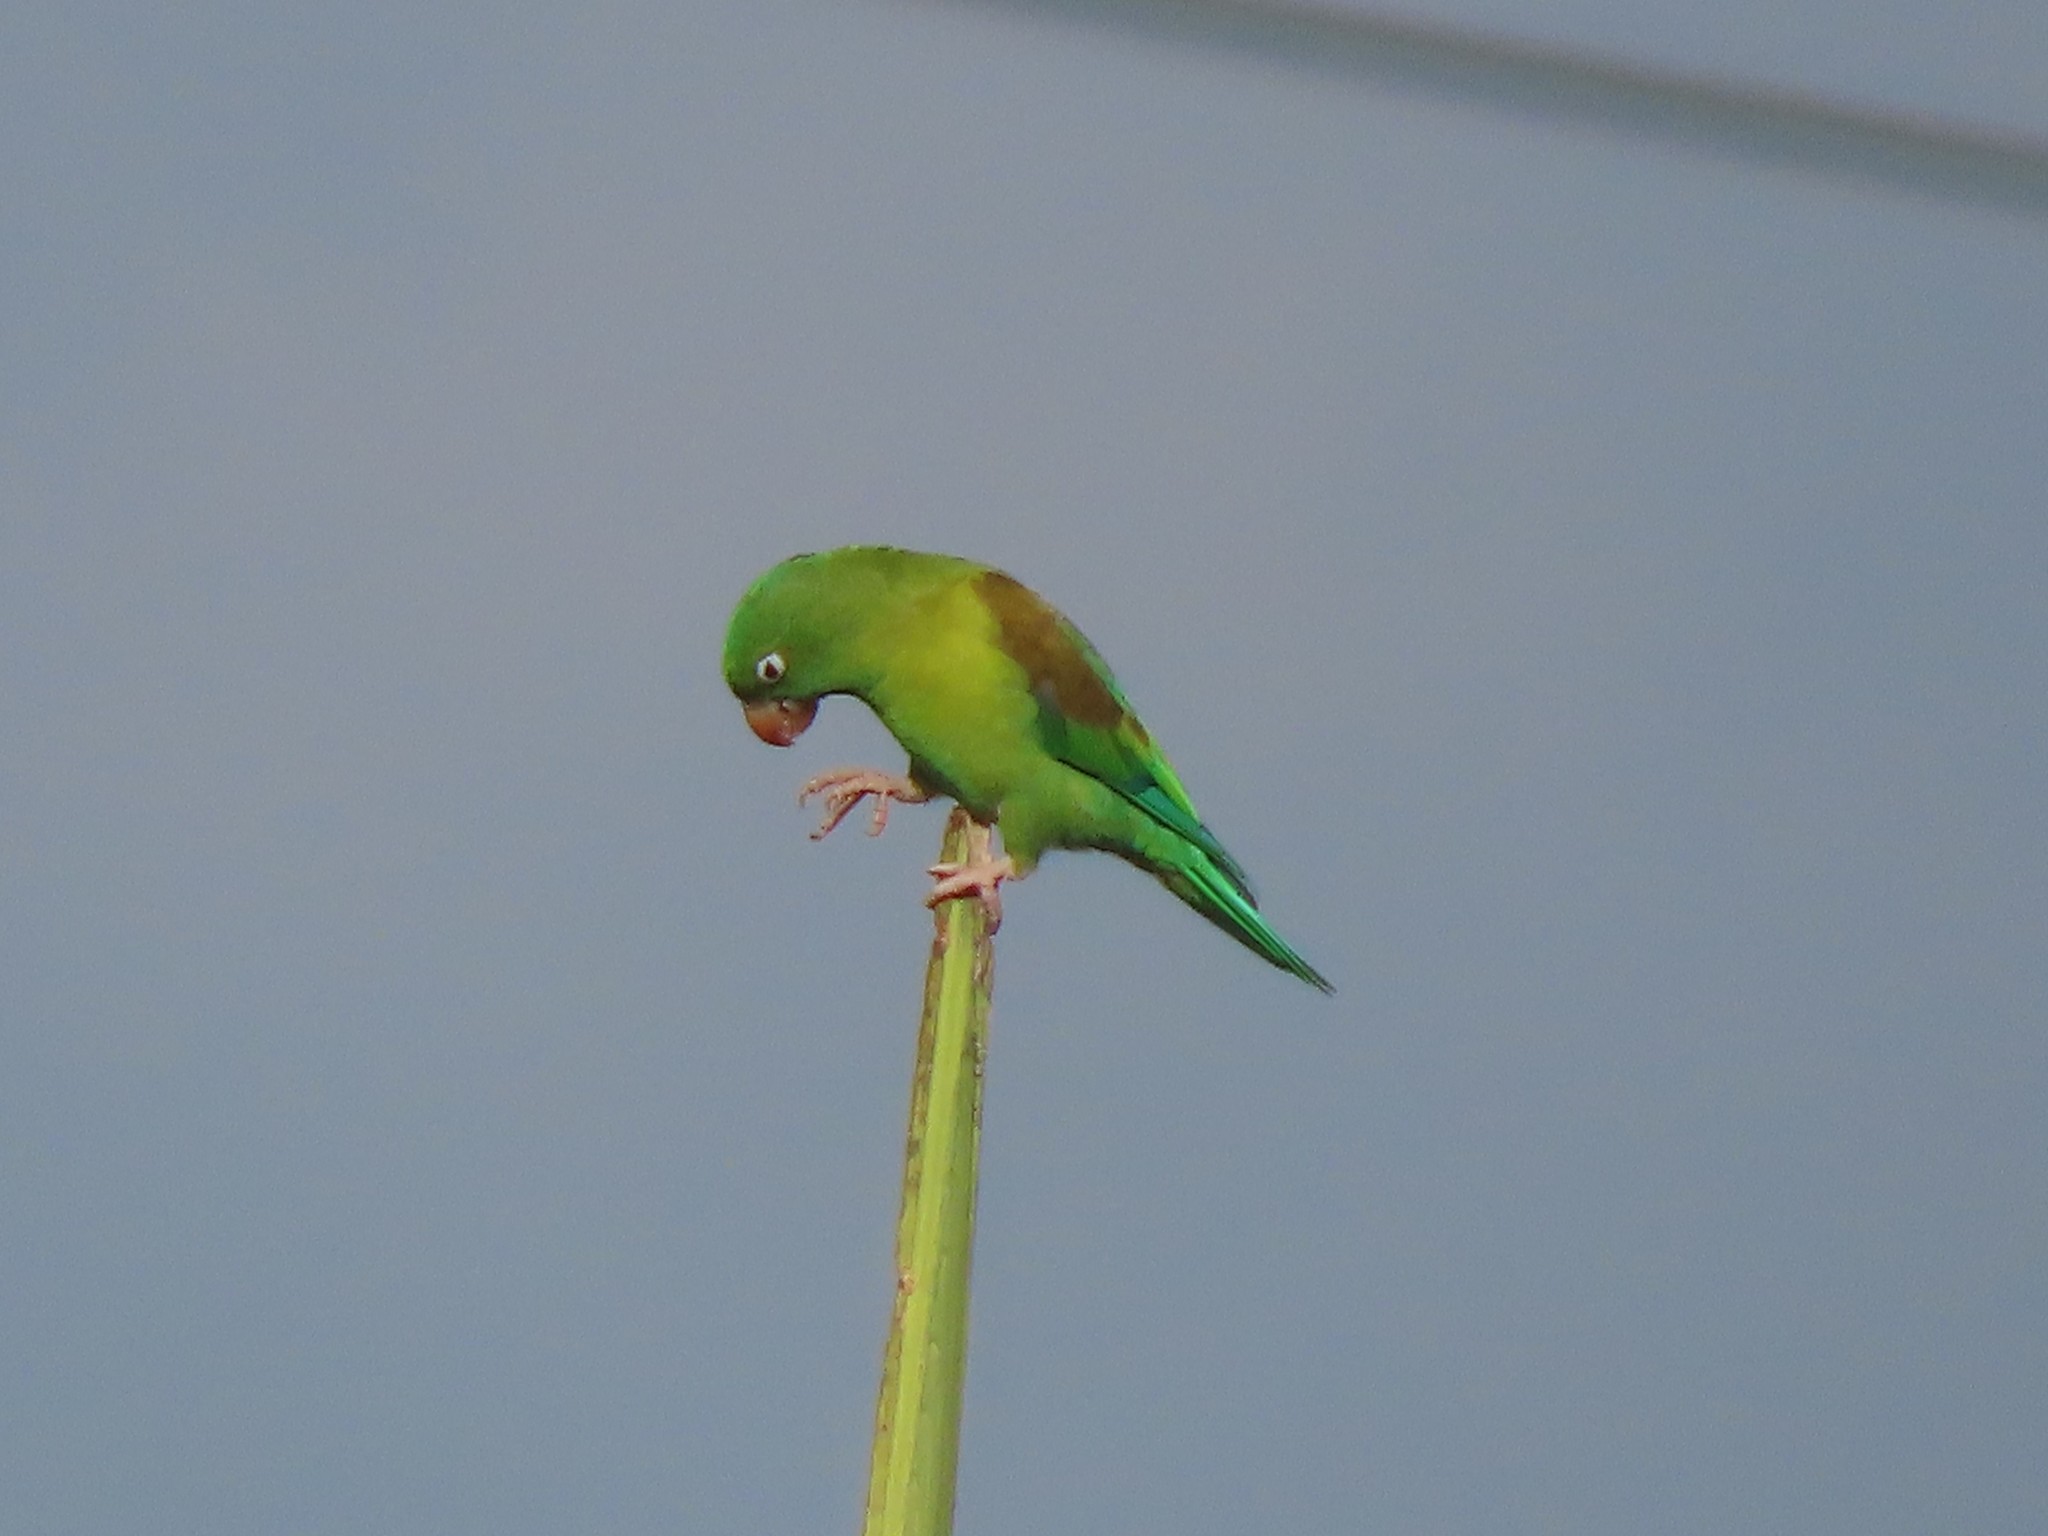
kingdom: Animalia
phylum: Chordata
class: Aves
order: Psittaciformes
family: Psittacidae
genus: Brotogeris
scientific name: Brotogeris jugularis
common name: Orange-chinned parakeet
